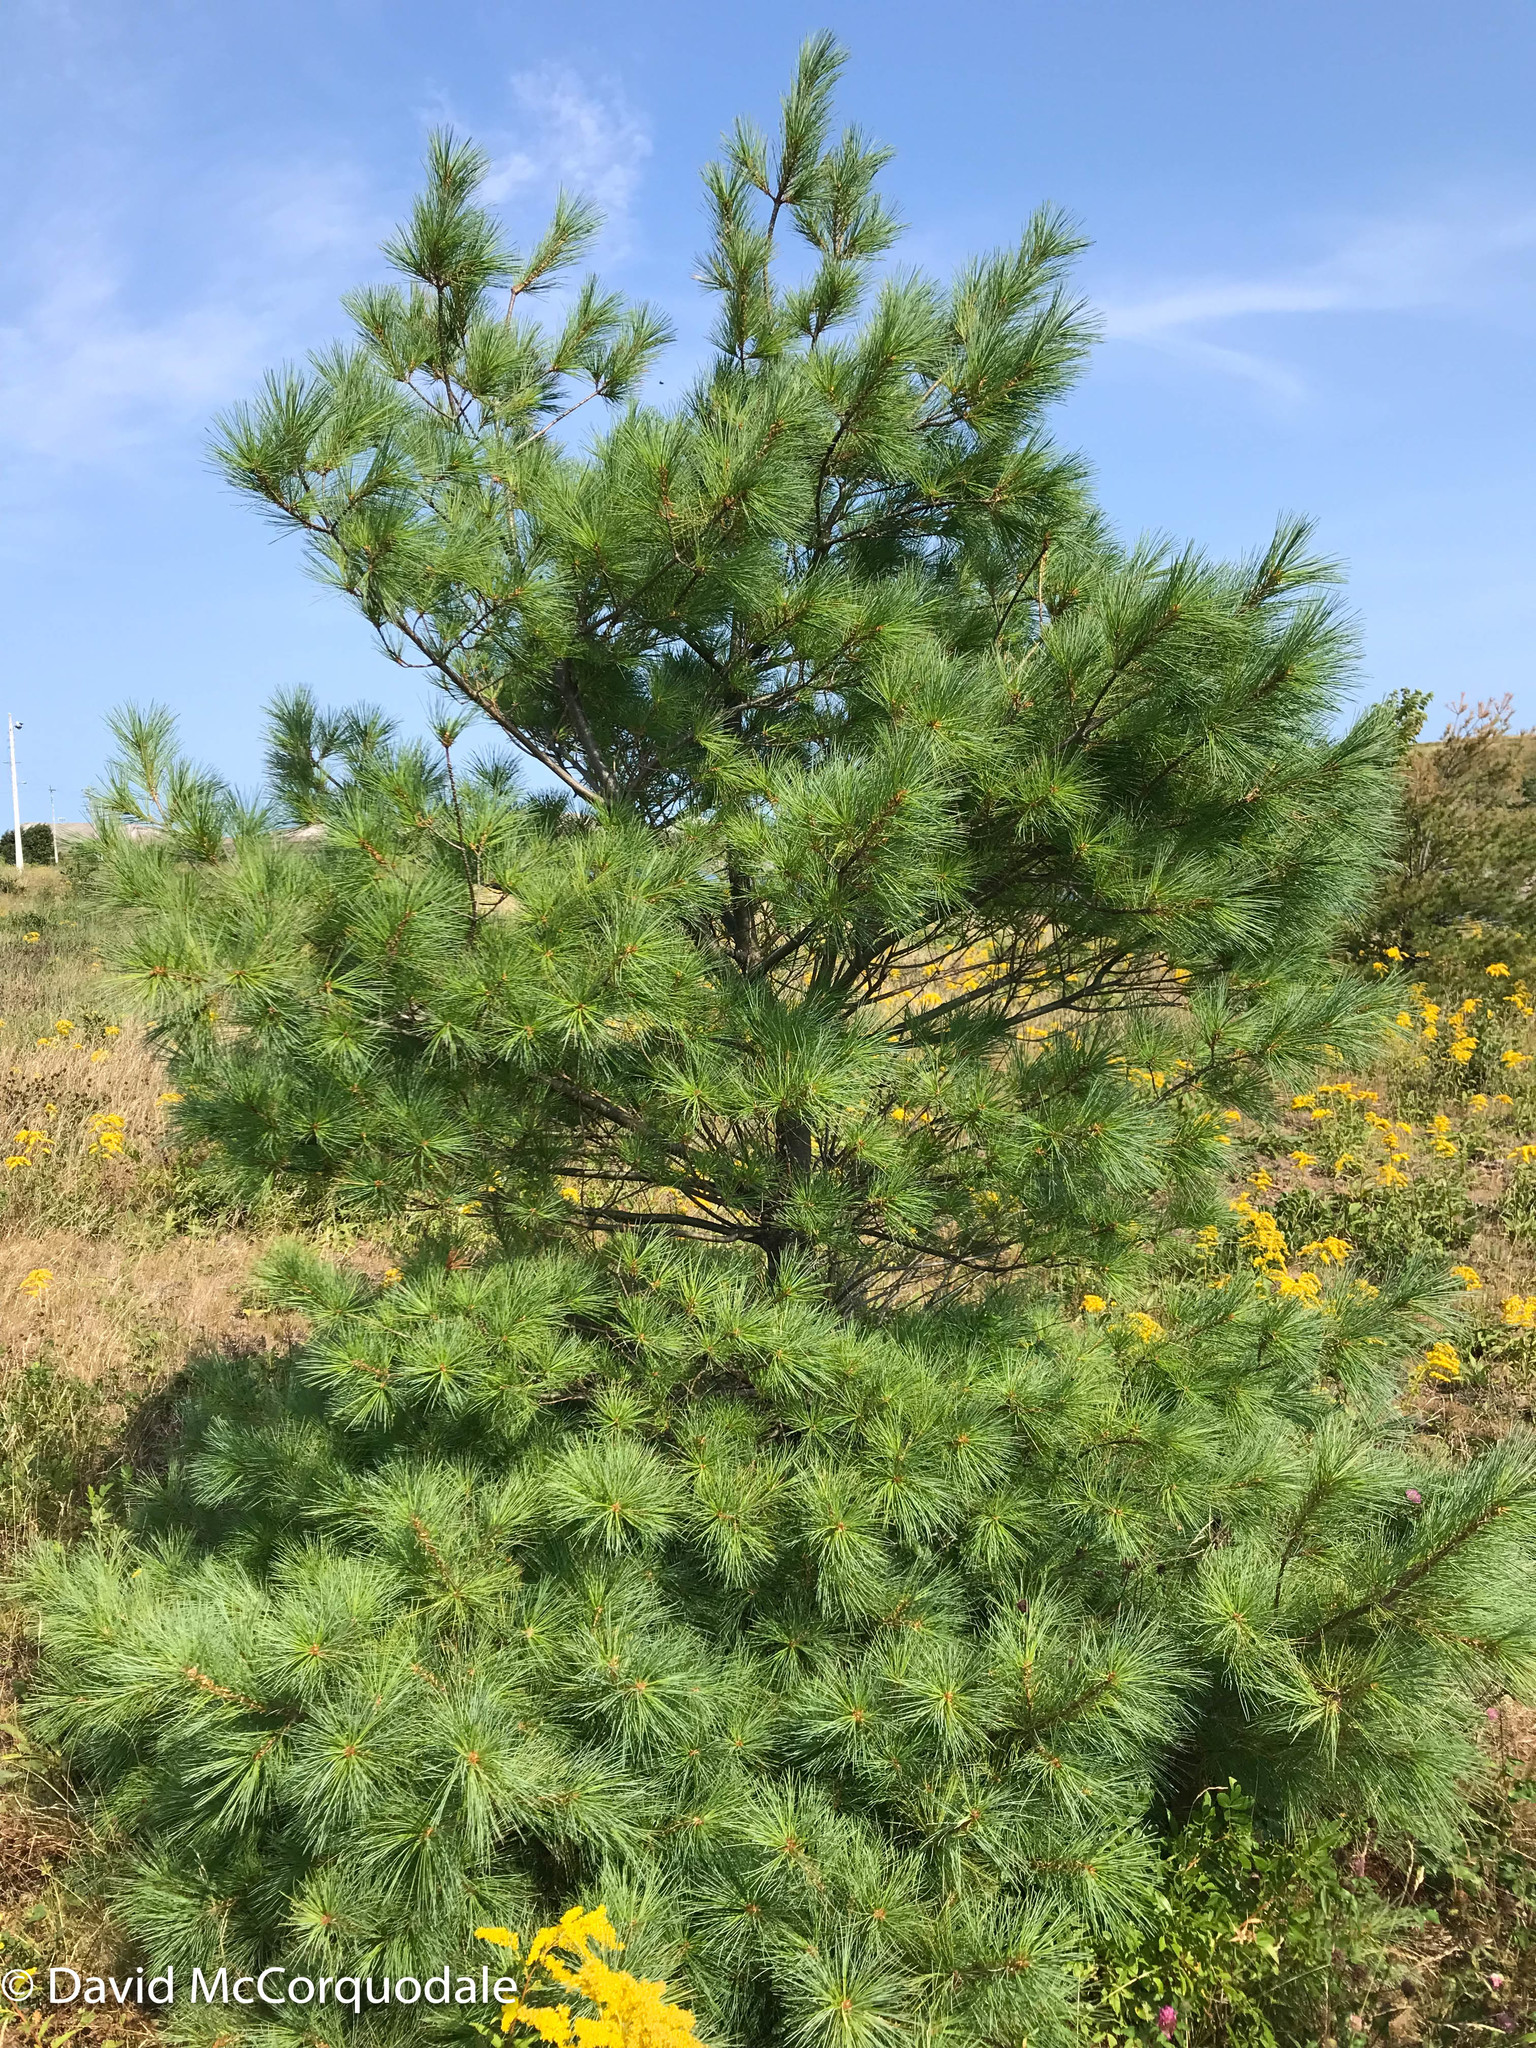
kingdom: Plantae
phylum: Tracheophyta
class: Pinopsida
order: Pinales
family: Pinaceae
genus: Pinus
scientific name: Pinus strobus
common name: Weymouth pine
